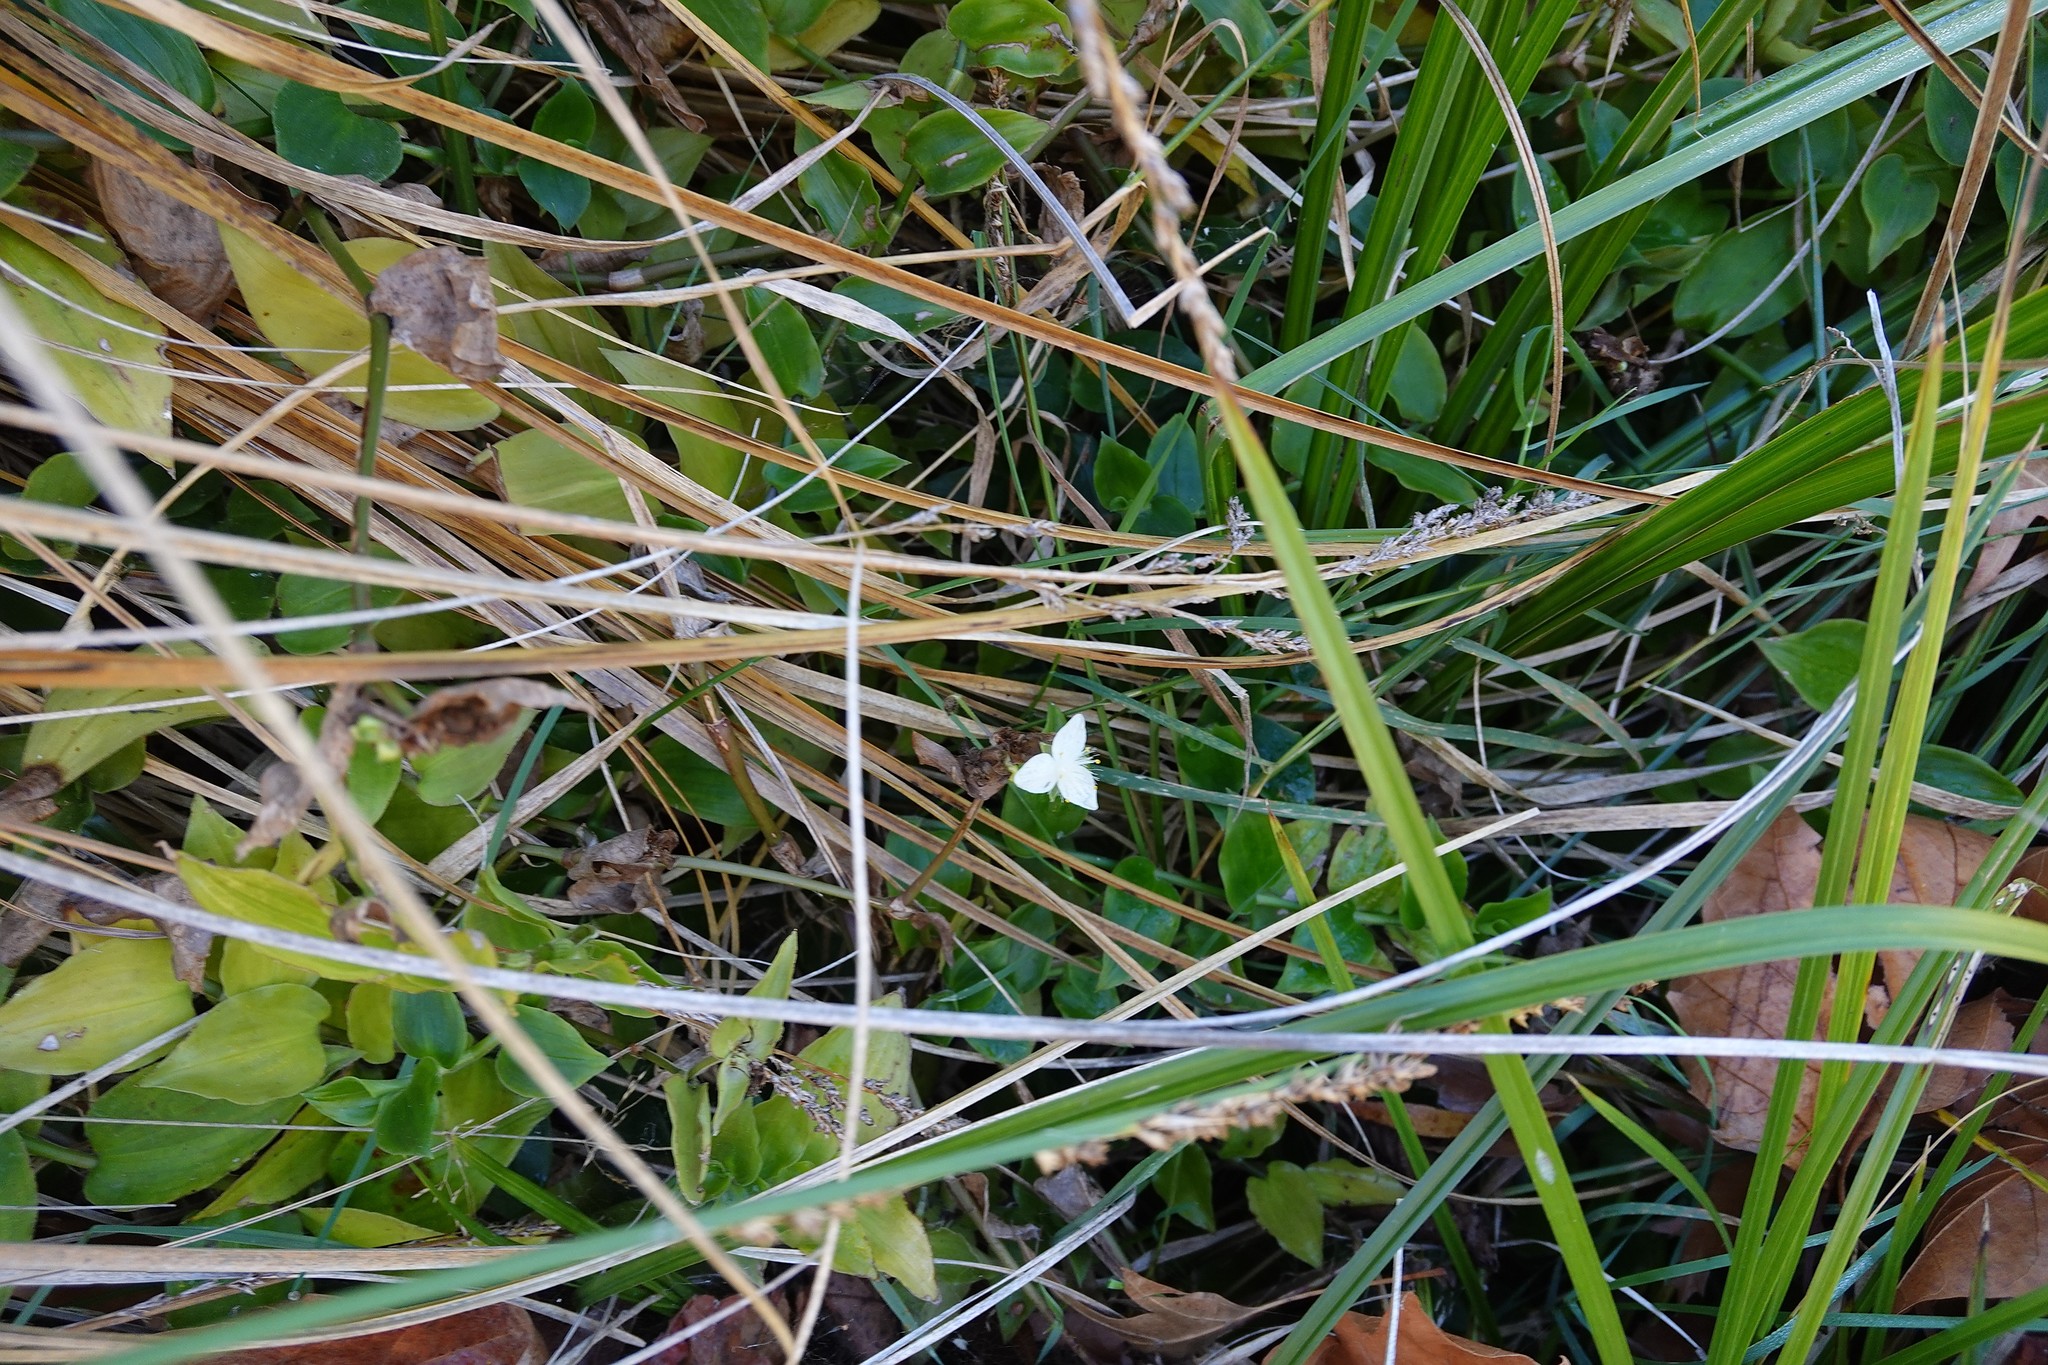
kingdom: Plantae
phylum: Tracheophyta
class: Liliopsida
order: Commelinales
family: Commelinaceae
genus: Tradescantia
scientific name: Tradescantia fluminensis
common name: Wandering-jew
